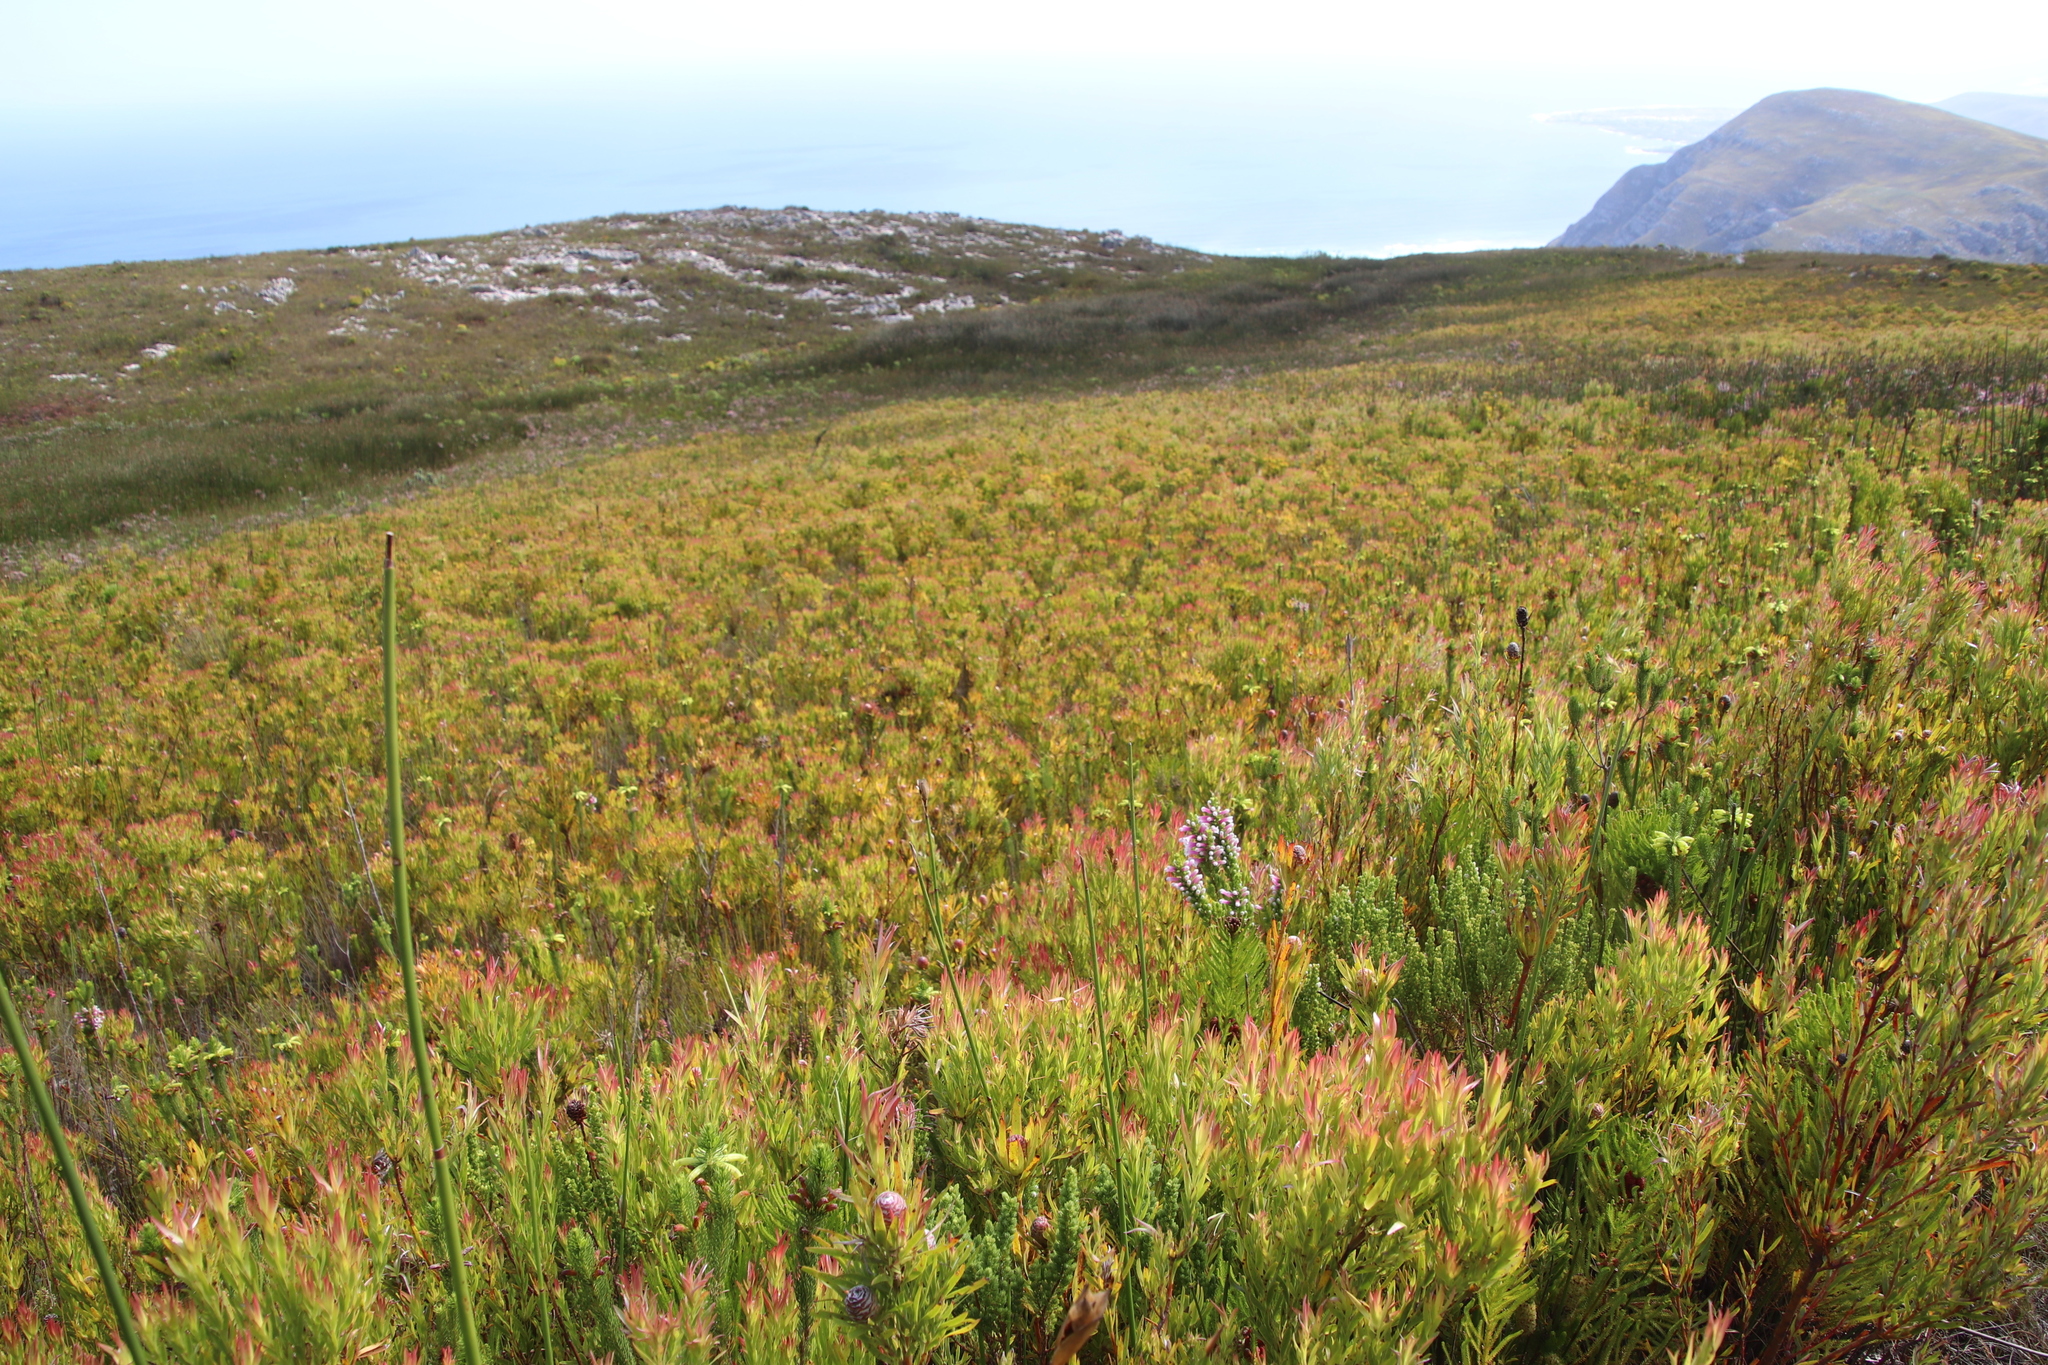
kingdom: Plantae
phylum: Tracheophyta
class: Magnoliopsida
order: Proteales
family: Proteaceae
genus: Leucadendron
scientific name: Leucadendron xanthoconus
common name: Sickle-leaf conebush
